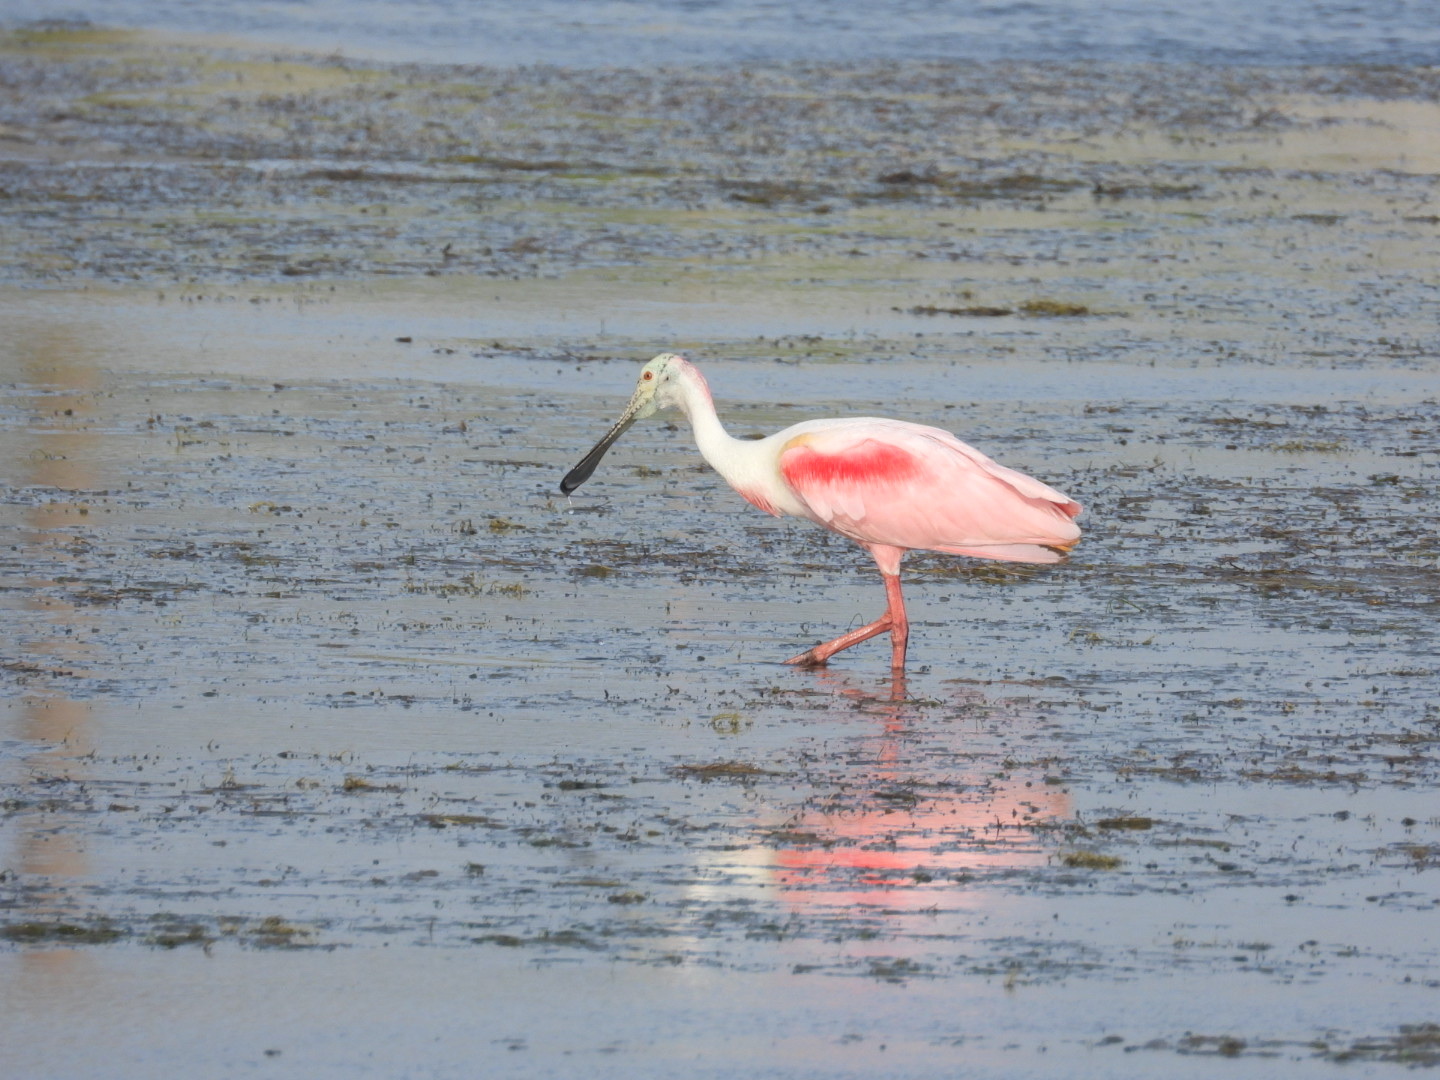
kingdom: Animalia
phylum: Chordata
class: Aves
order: Pelecaniformes
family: Threskiornithidae
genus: Platalea
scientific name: Platalea ajaja
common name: Roseate spoonbill
